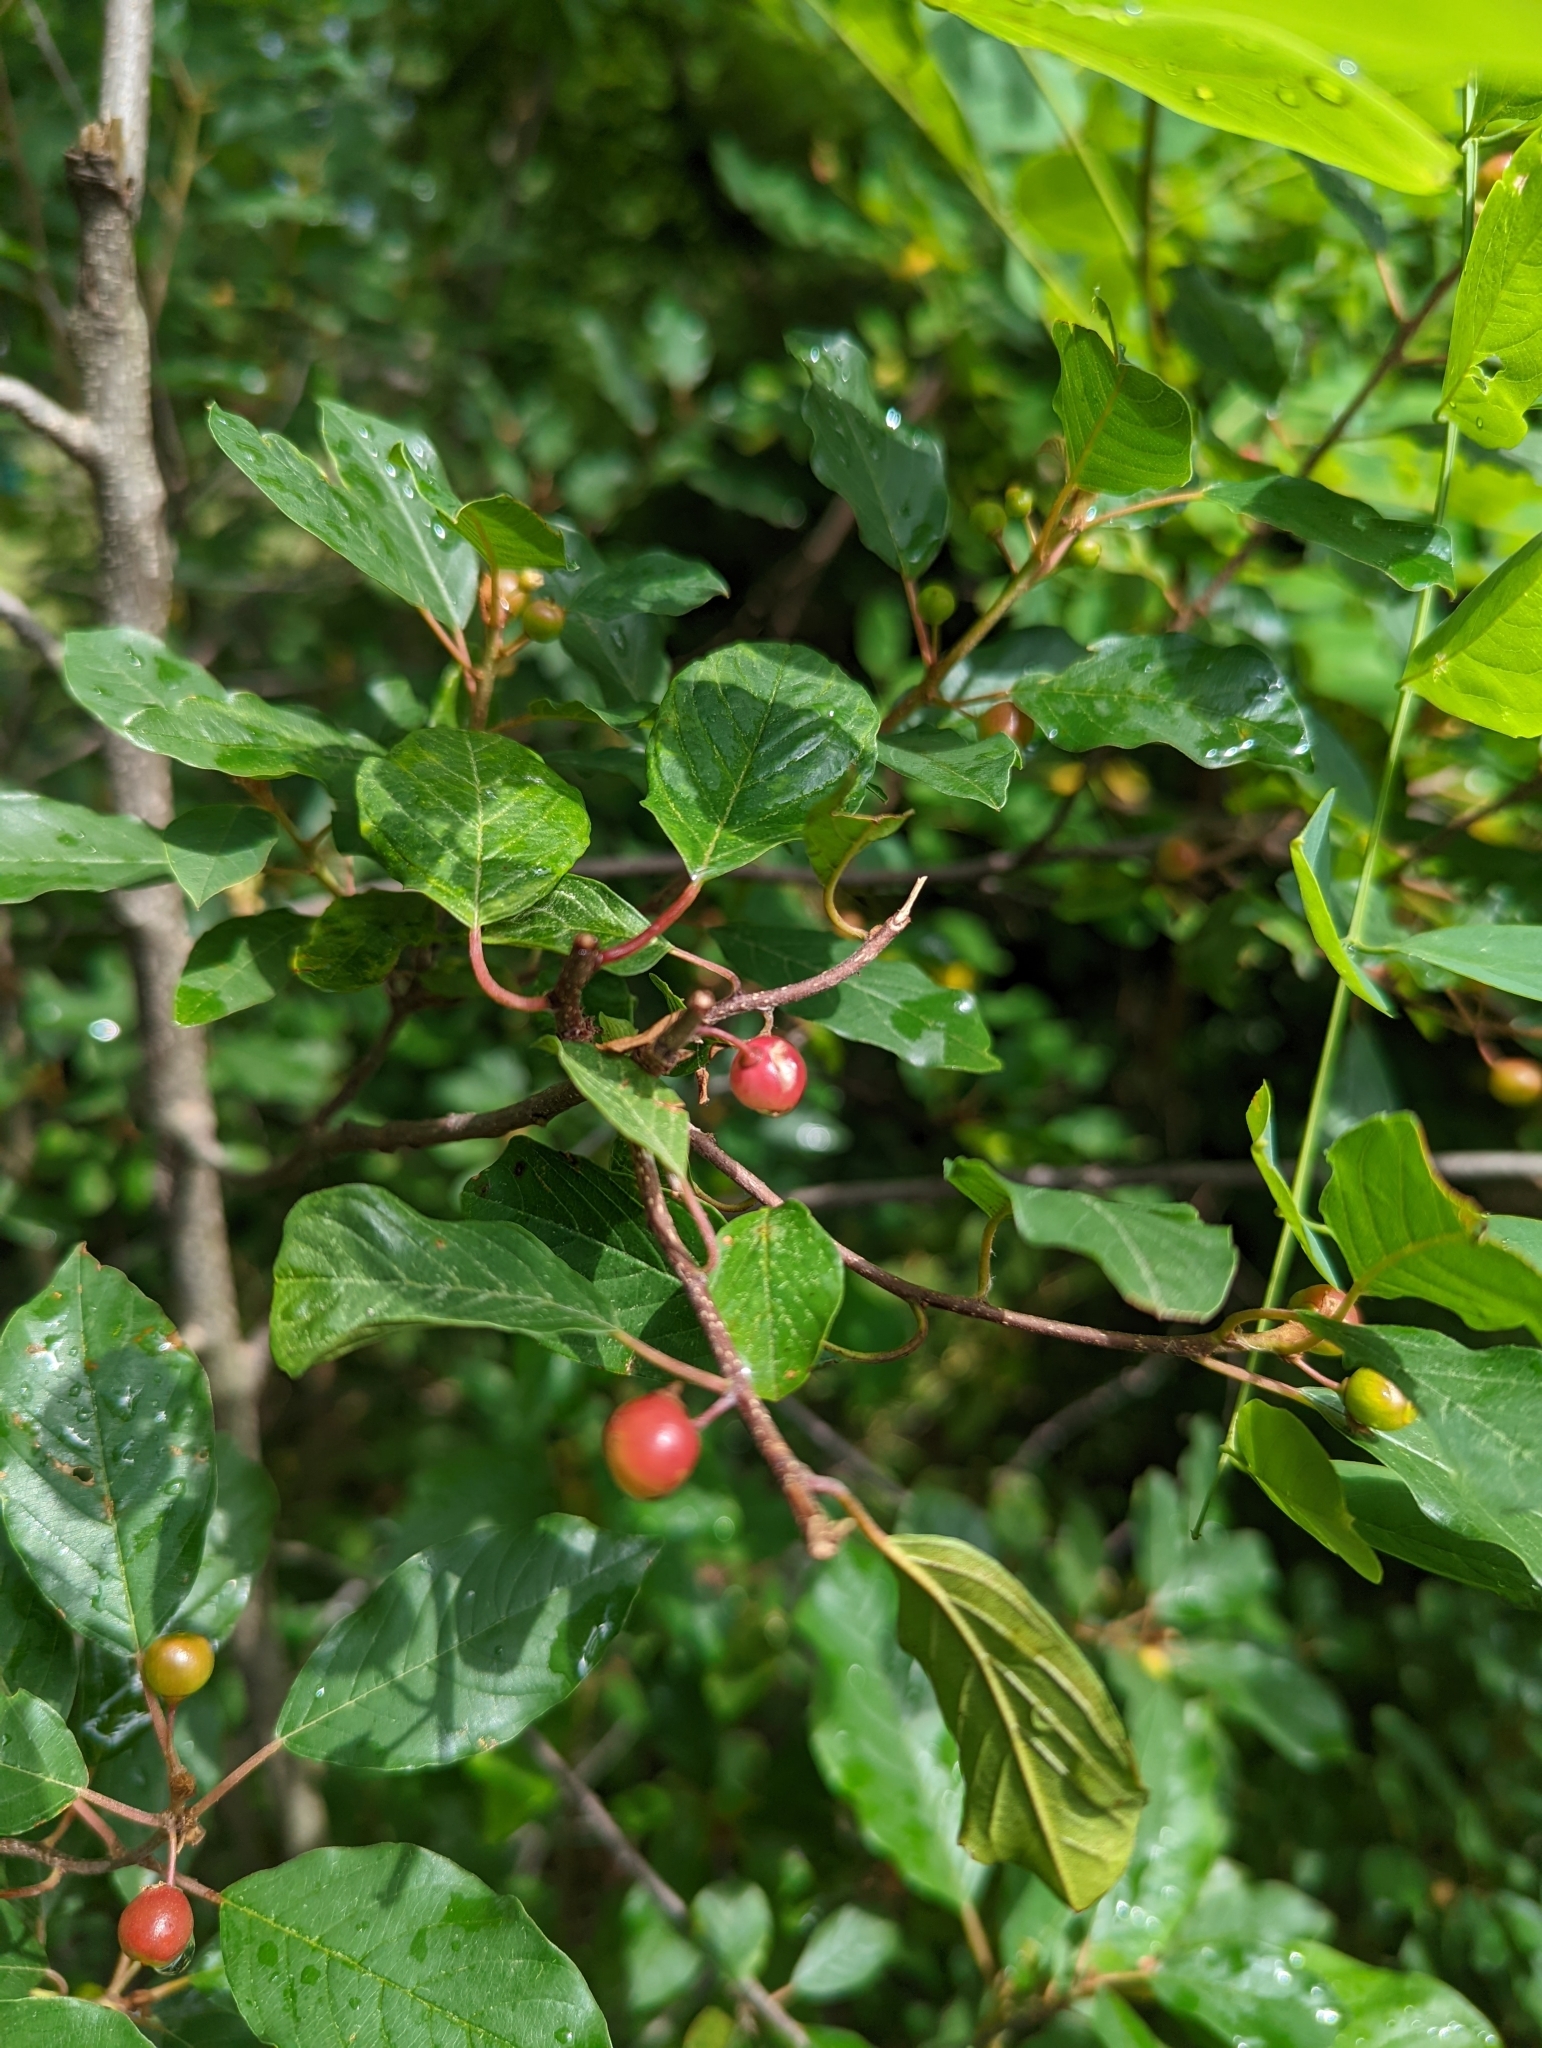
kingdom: Plantae
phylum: Tracheophyta
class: Magnoliopsida
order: Rosales
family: Rhamnaceae
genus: Frangula
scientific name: Frangula alnus
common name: Alder buckthorn
